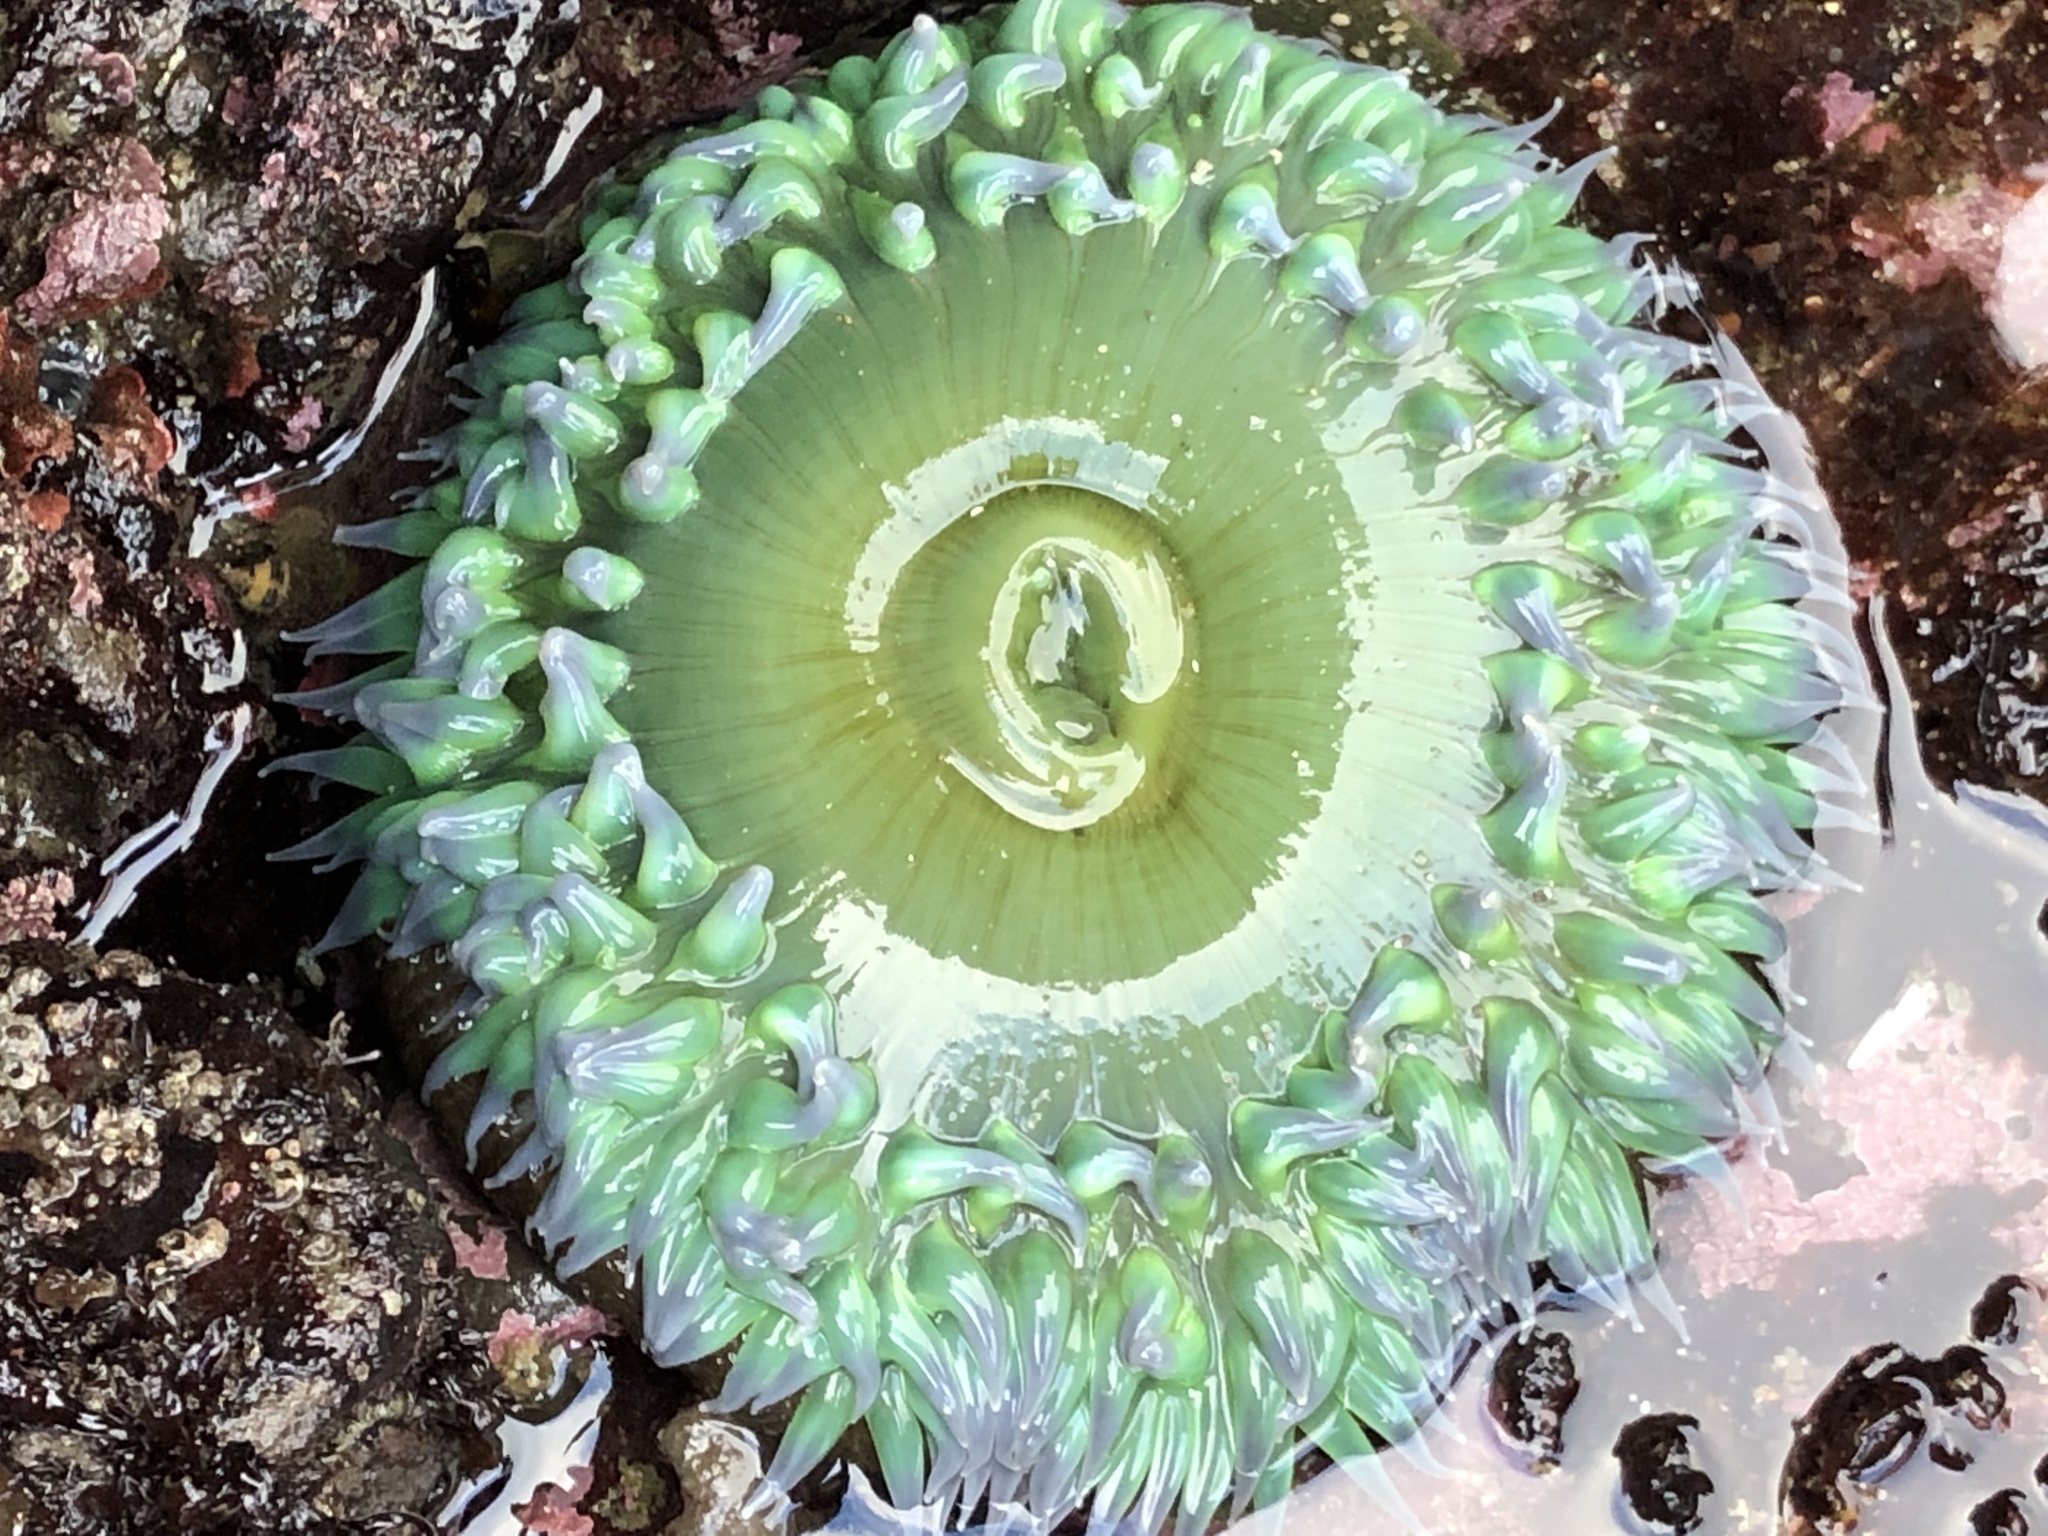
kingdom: Animalia
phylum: Cnidaria
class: Anthozoa
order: Actiniaria
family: Actiniidae
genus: Anthopleura
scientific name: Anthopleura xanthogrammica
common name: Giant green anemone
